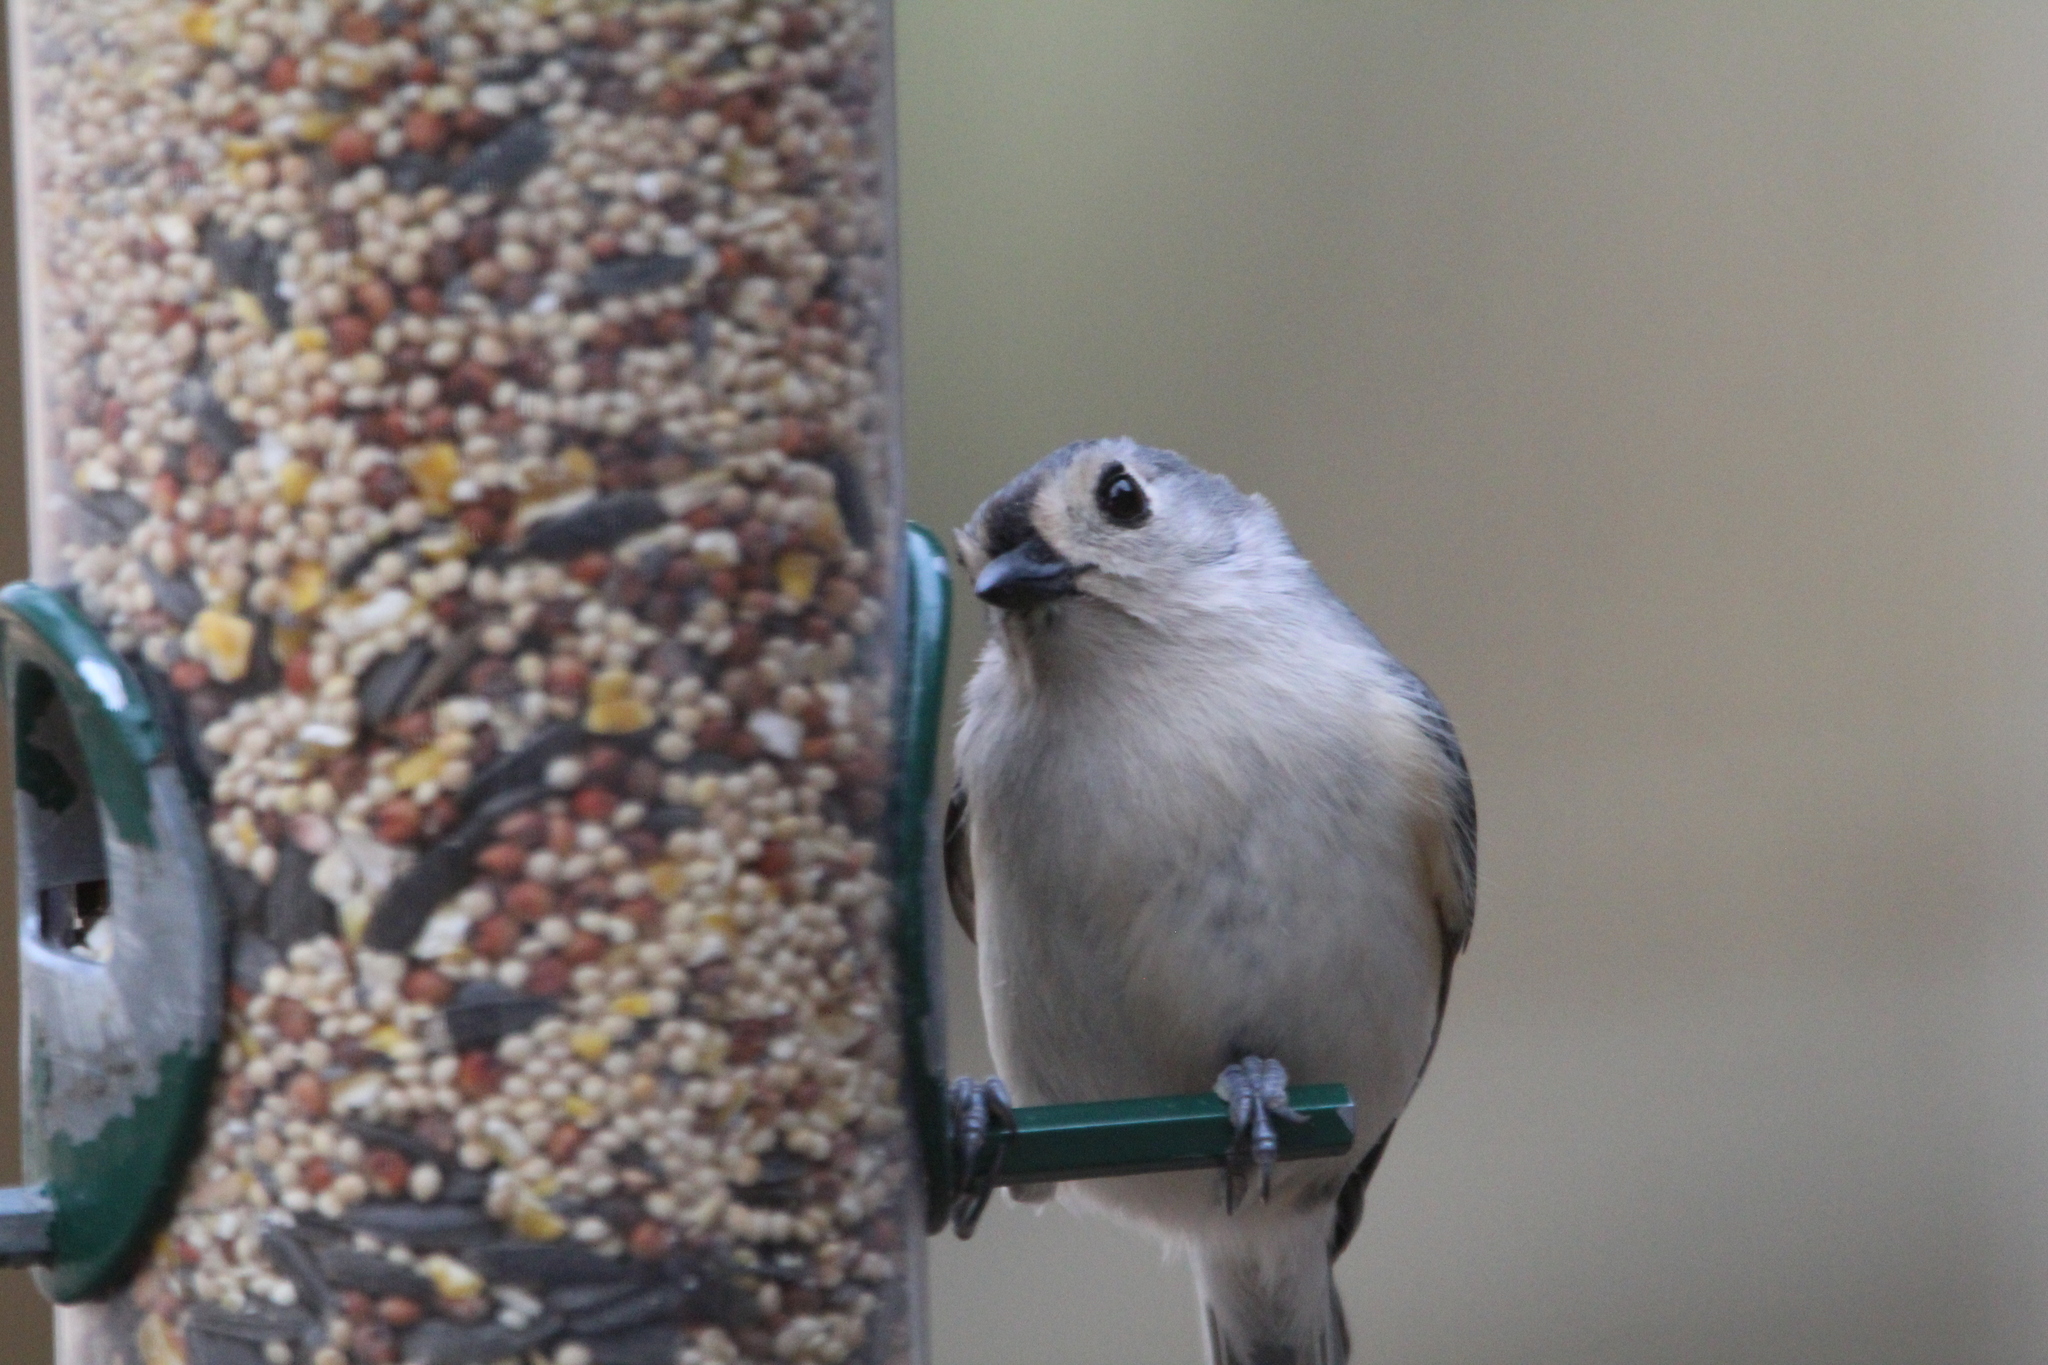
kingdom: Animalia
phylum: Chordata
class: Aves
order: Passeriformes
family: Paridae
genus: Baeolophus
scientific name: Baeolophus bicolor
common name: Tufted titmouse
